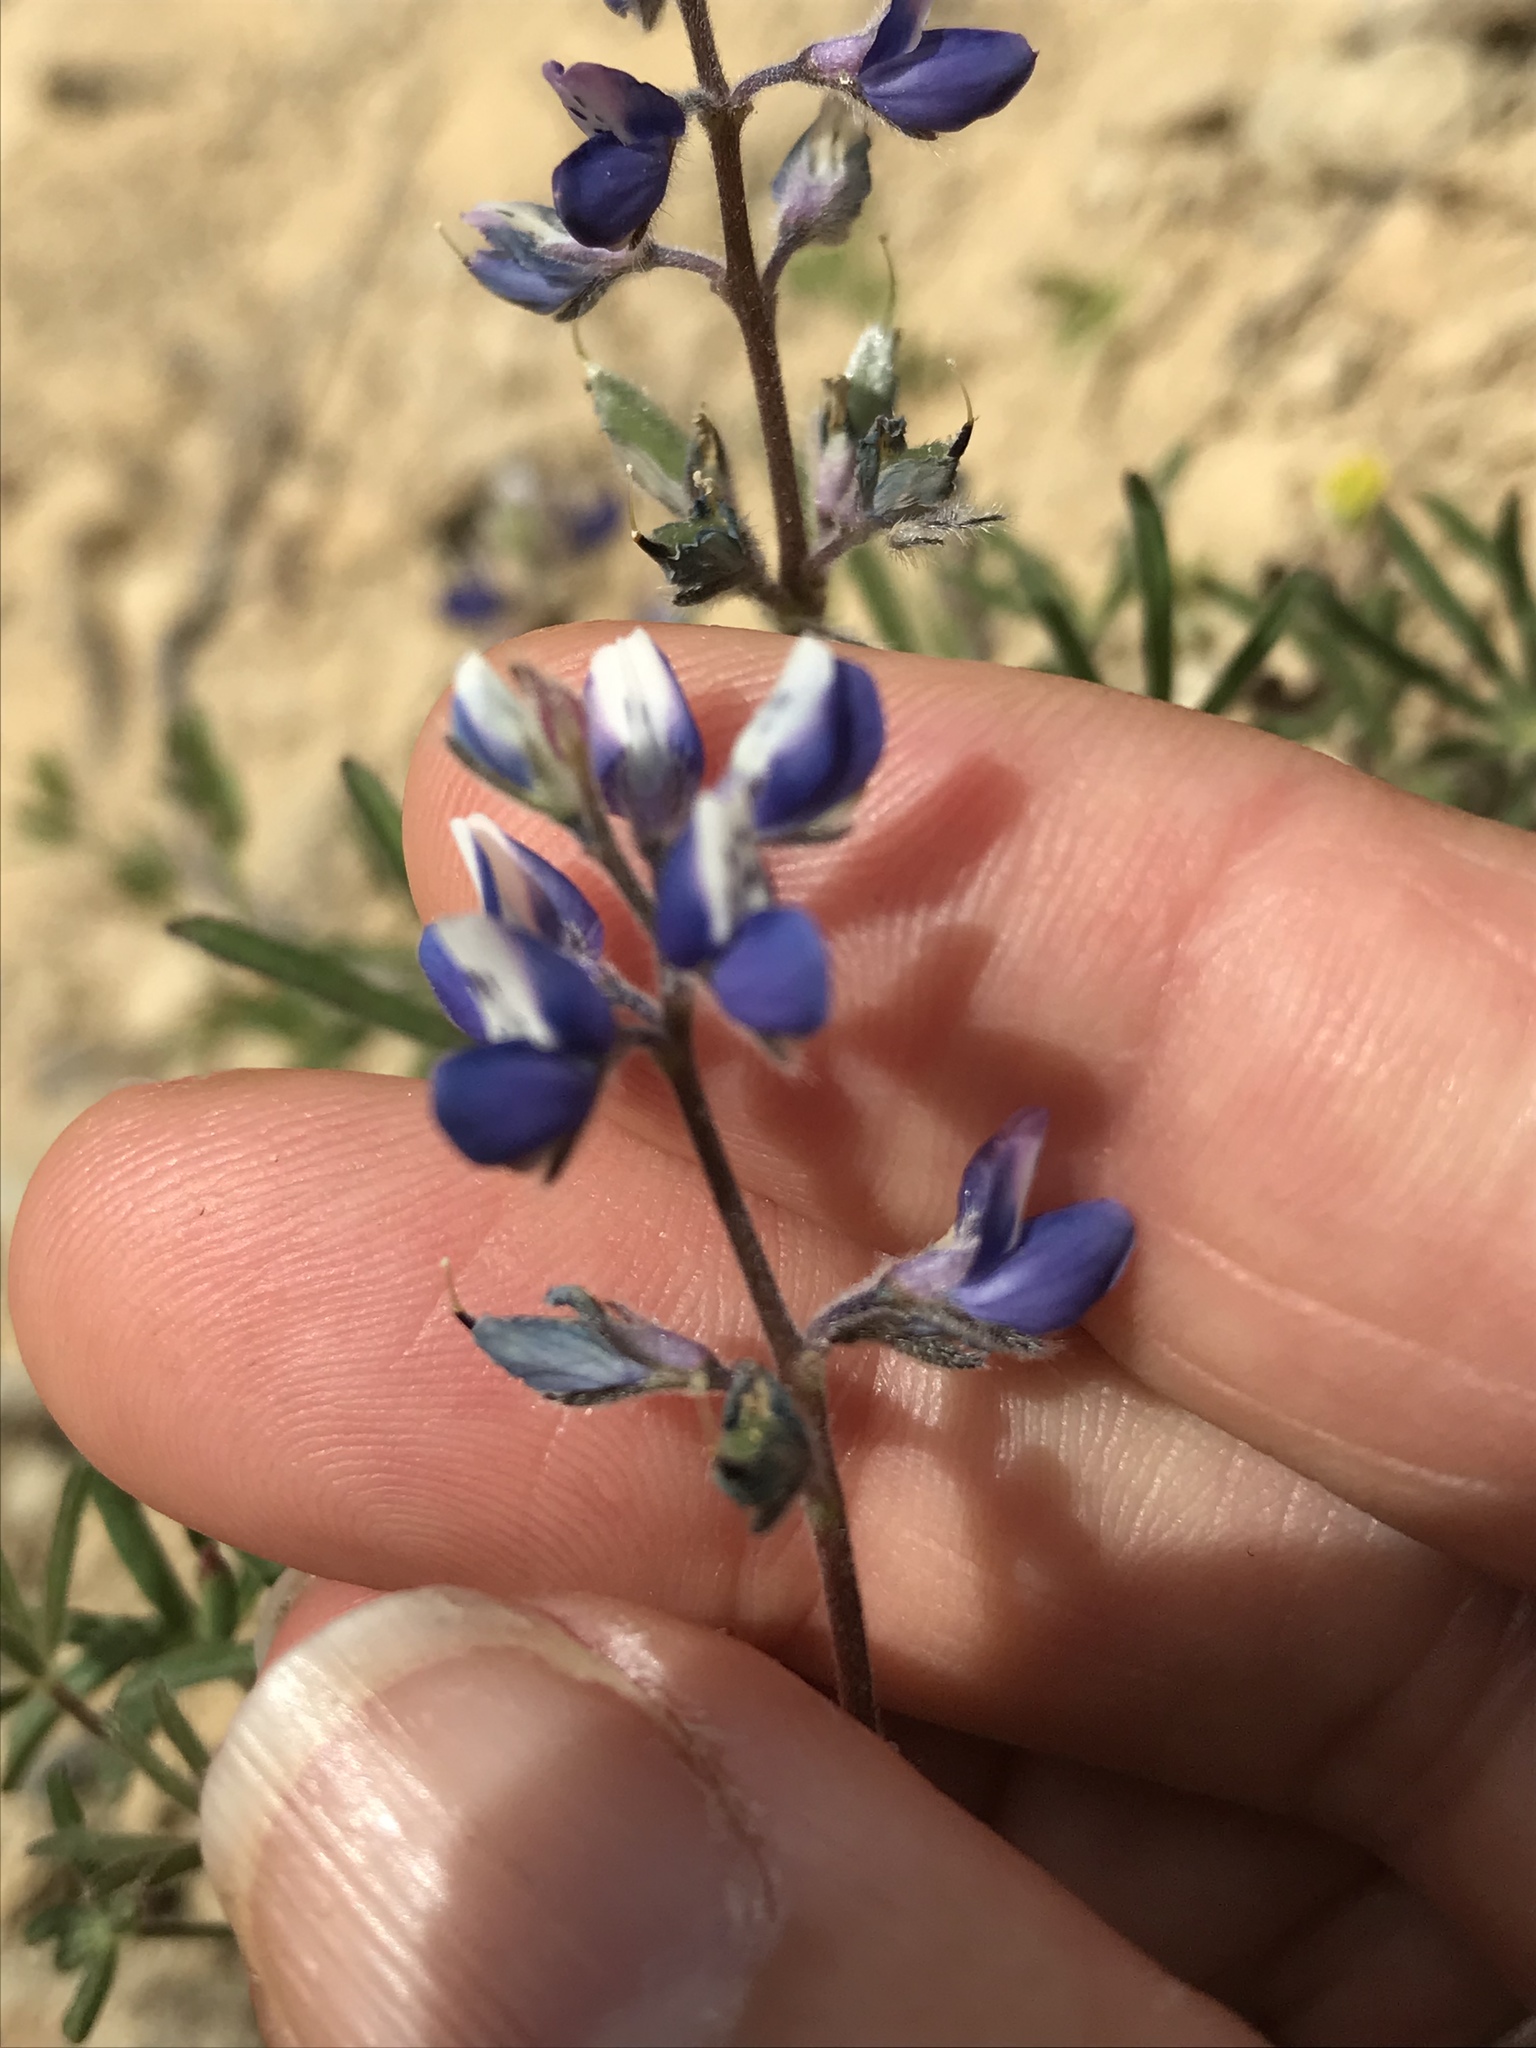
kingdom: Plantae
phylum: Tracheophyta
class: Magnoliopsida
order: Fabales
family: Fabaceae
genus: Lupinus
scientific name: Lupinus bicolor
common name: Miniature lupine
